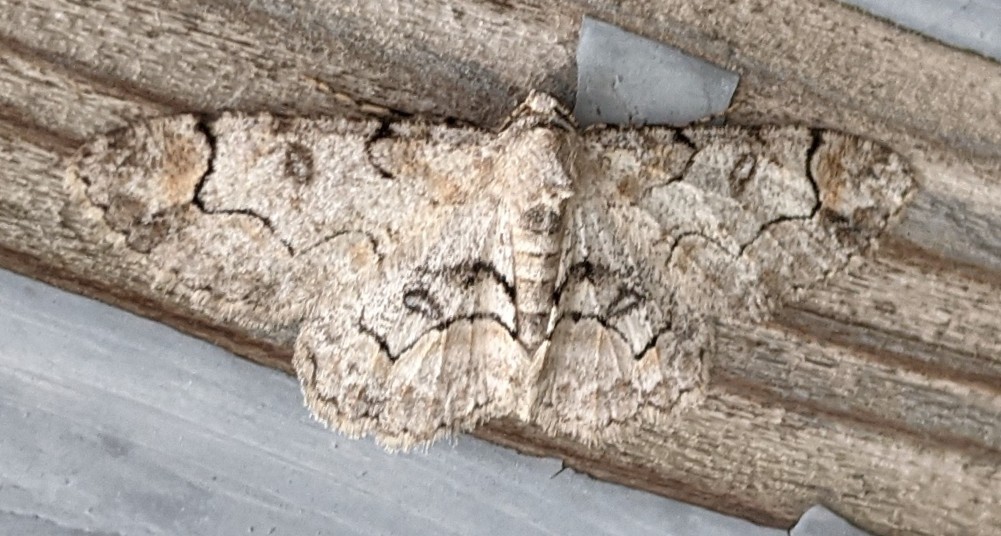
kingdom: Animalia
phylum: Arthropoda
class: Insecta
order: Lepidoptera
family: Geometridae
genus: Iridopsis
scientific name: Iridopsis larvaria
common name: Bent-line gray
